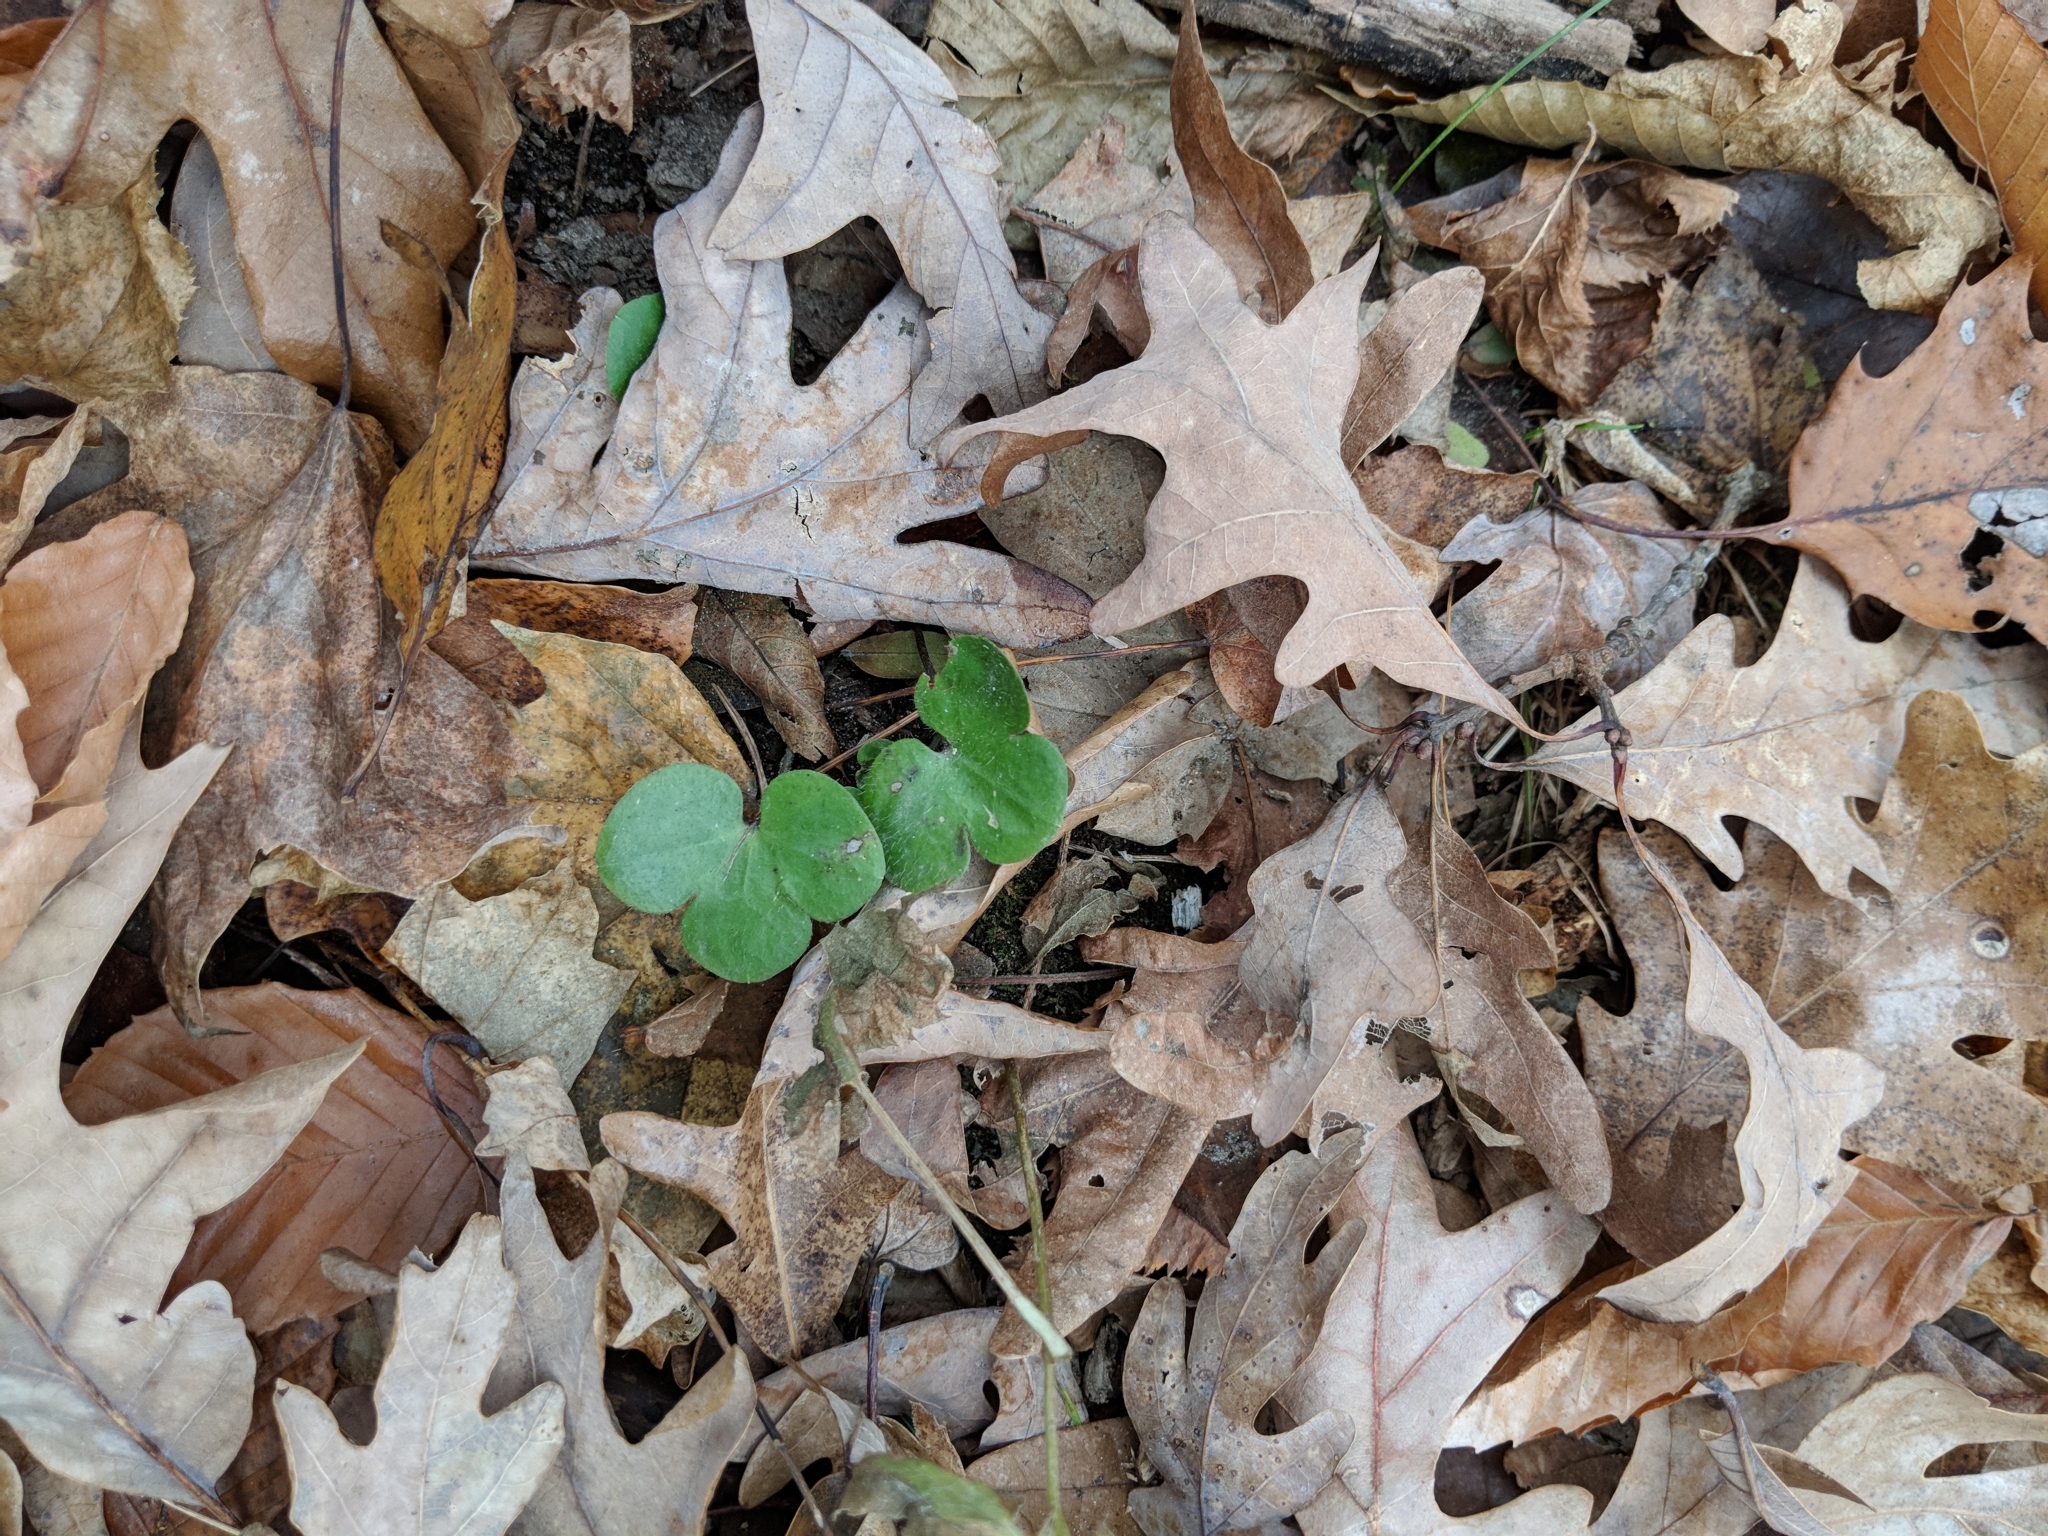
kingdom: Plantae
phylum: Tracheophyta
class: Magnoliopsida
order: Ranunculales
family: Ranunculaceae
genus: Hepatica
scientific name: Hepatica americana
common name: American hepatica
